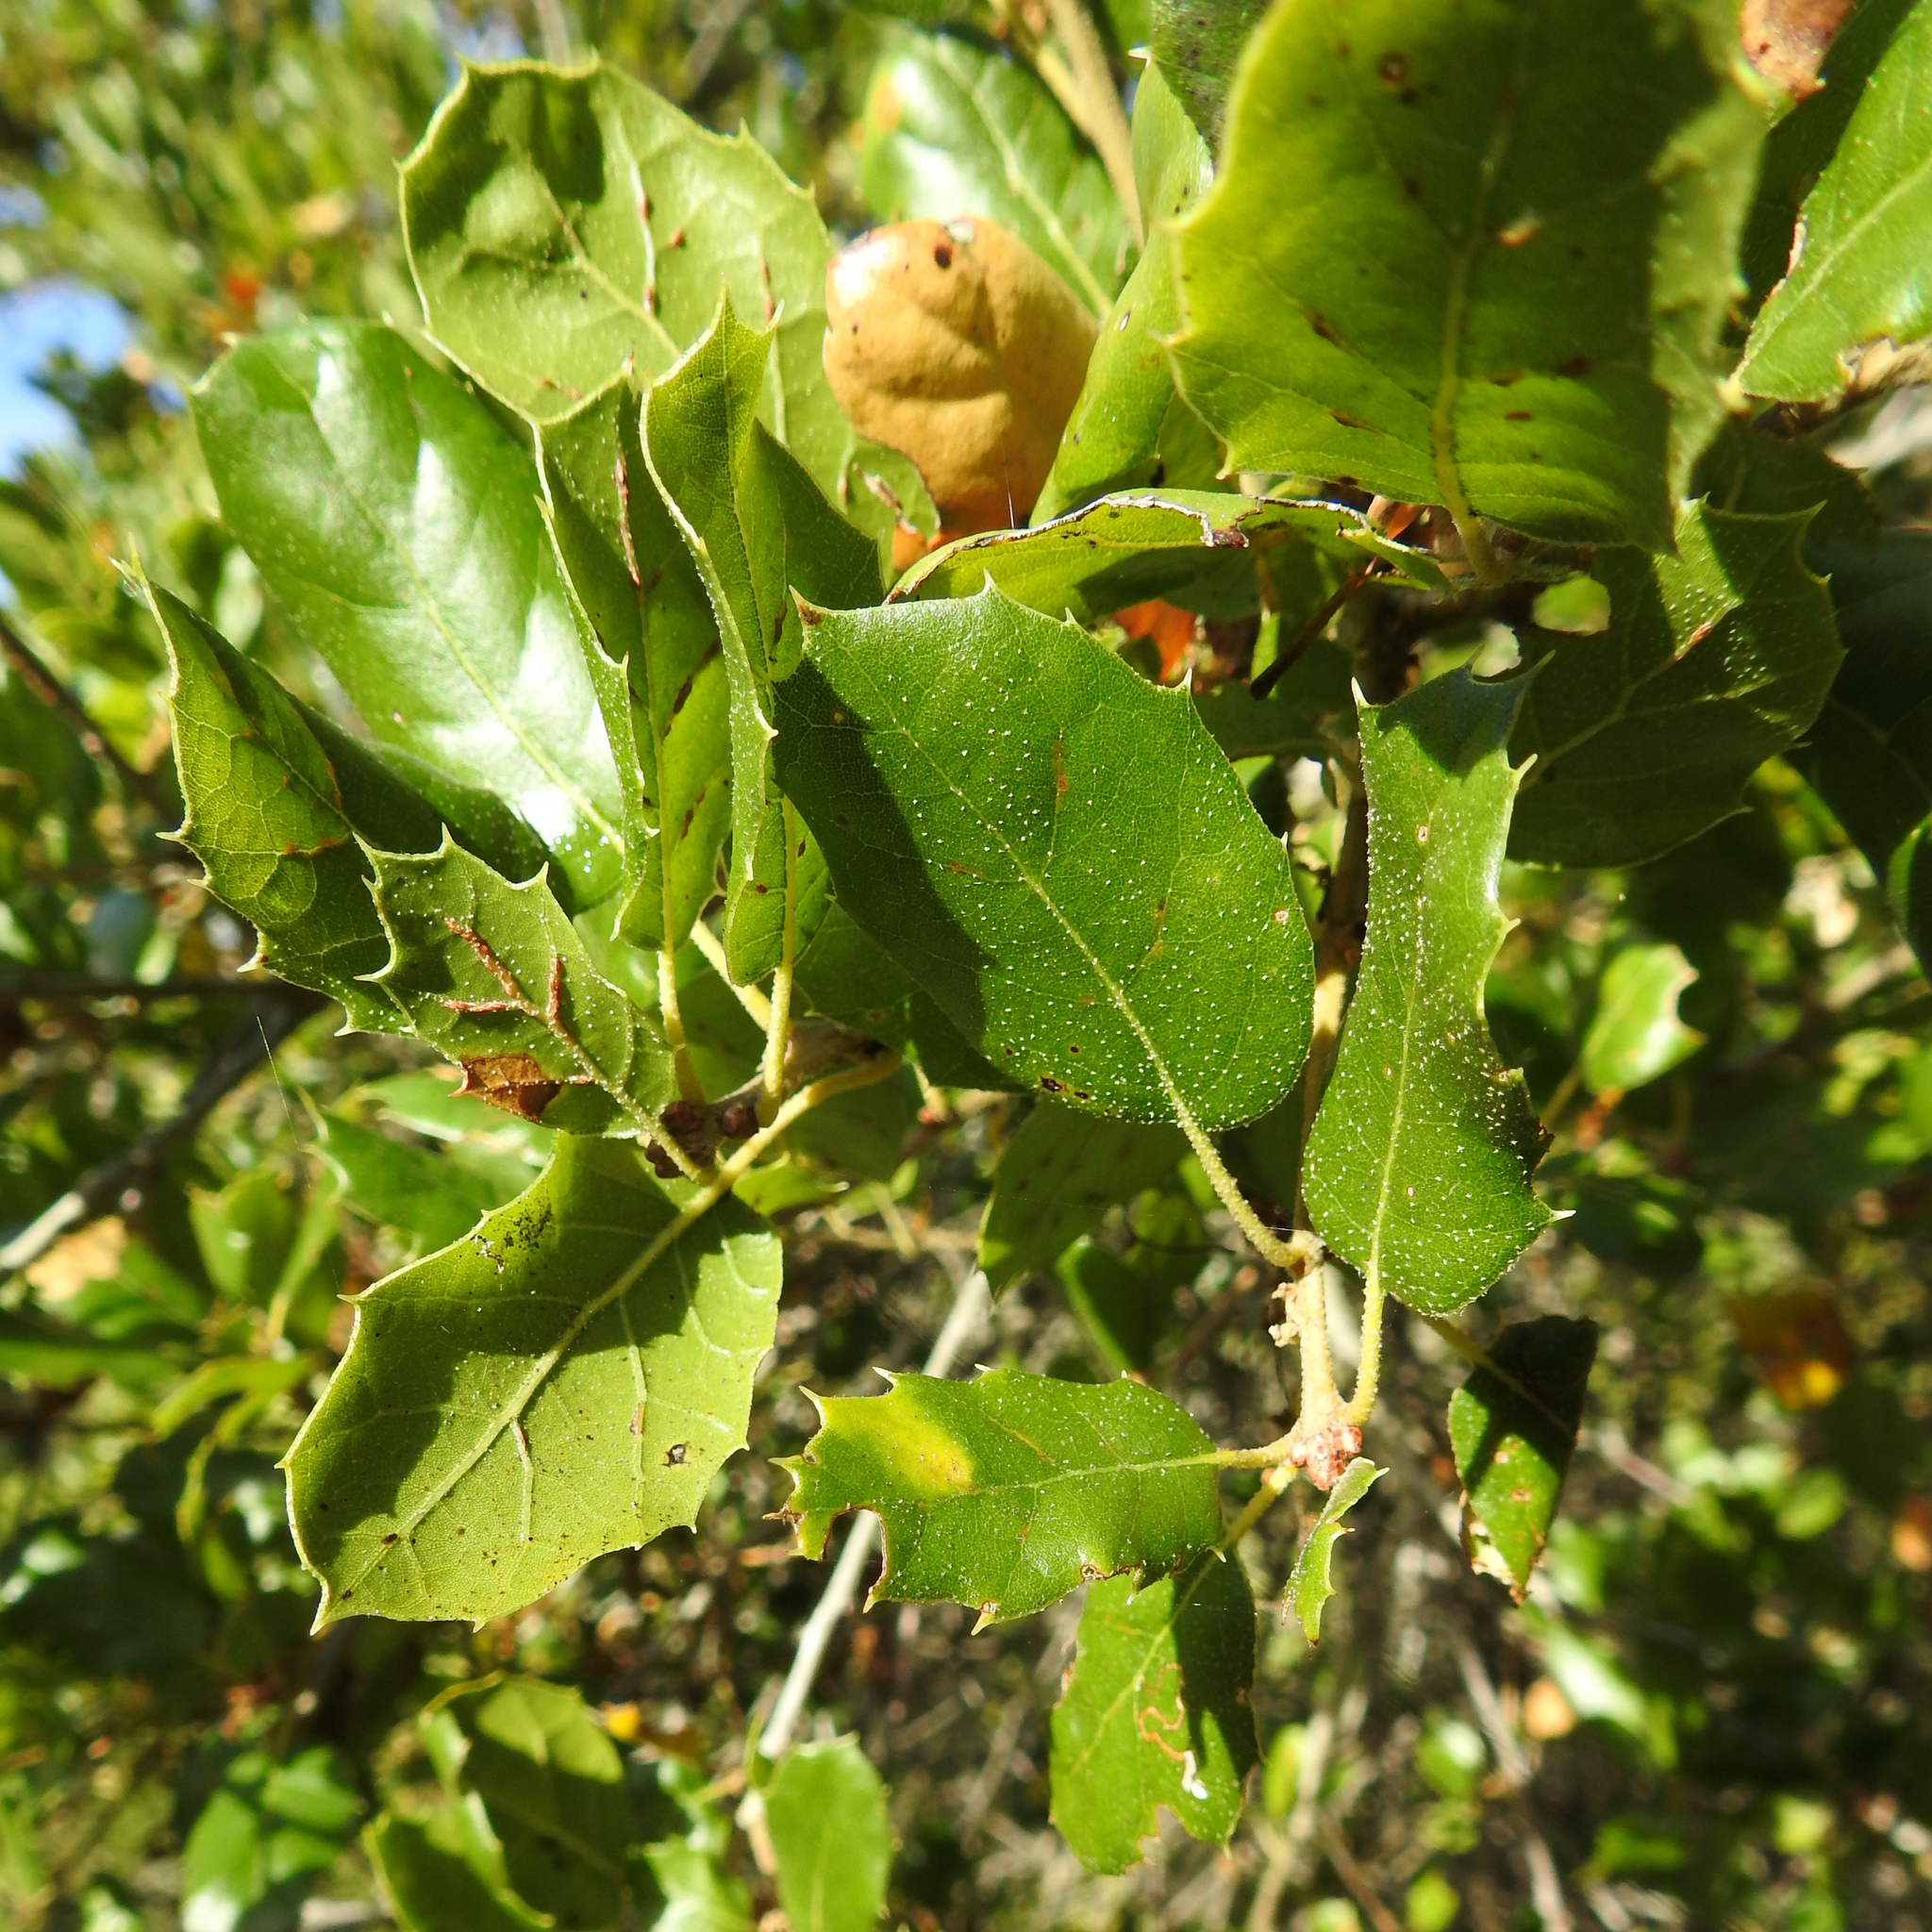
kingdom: Plantae
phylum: Tracheophyta
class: Magnoliopsida
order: Fagales
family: Fagaceae
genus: Quercus
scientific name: Quercus agrifolia
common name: California live oak
